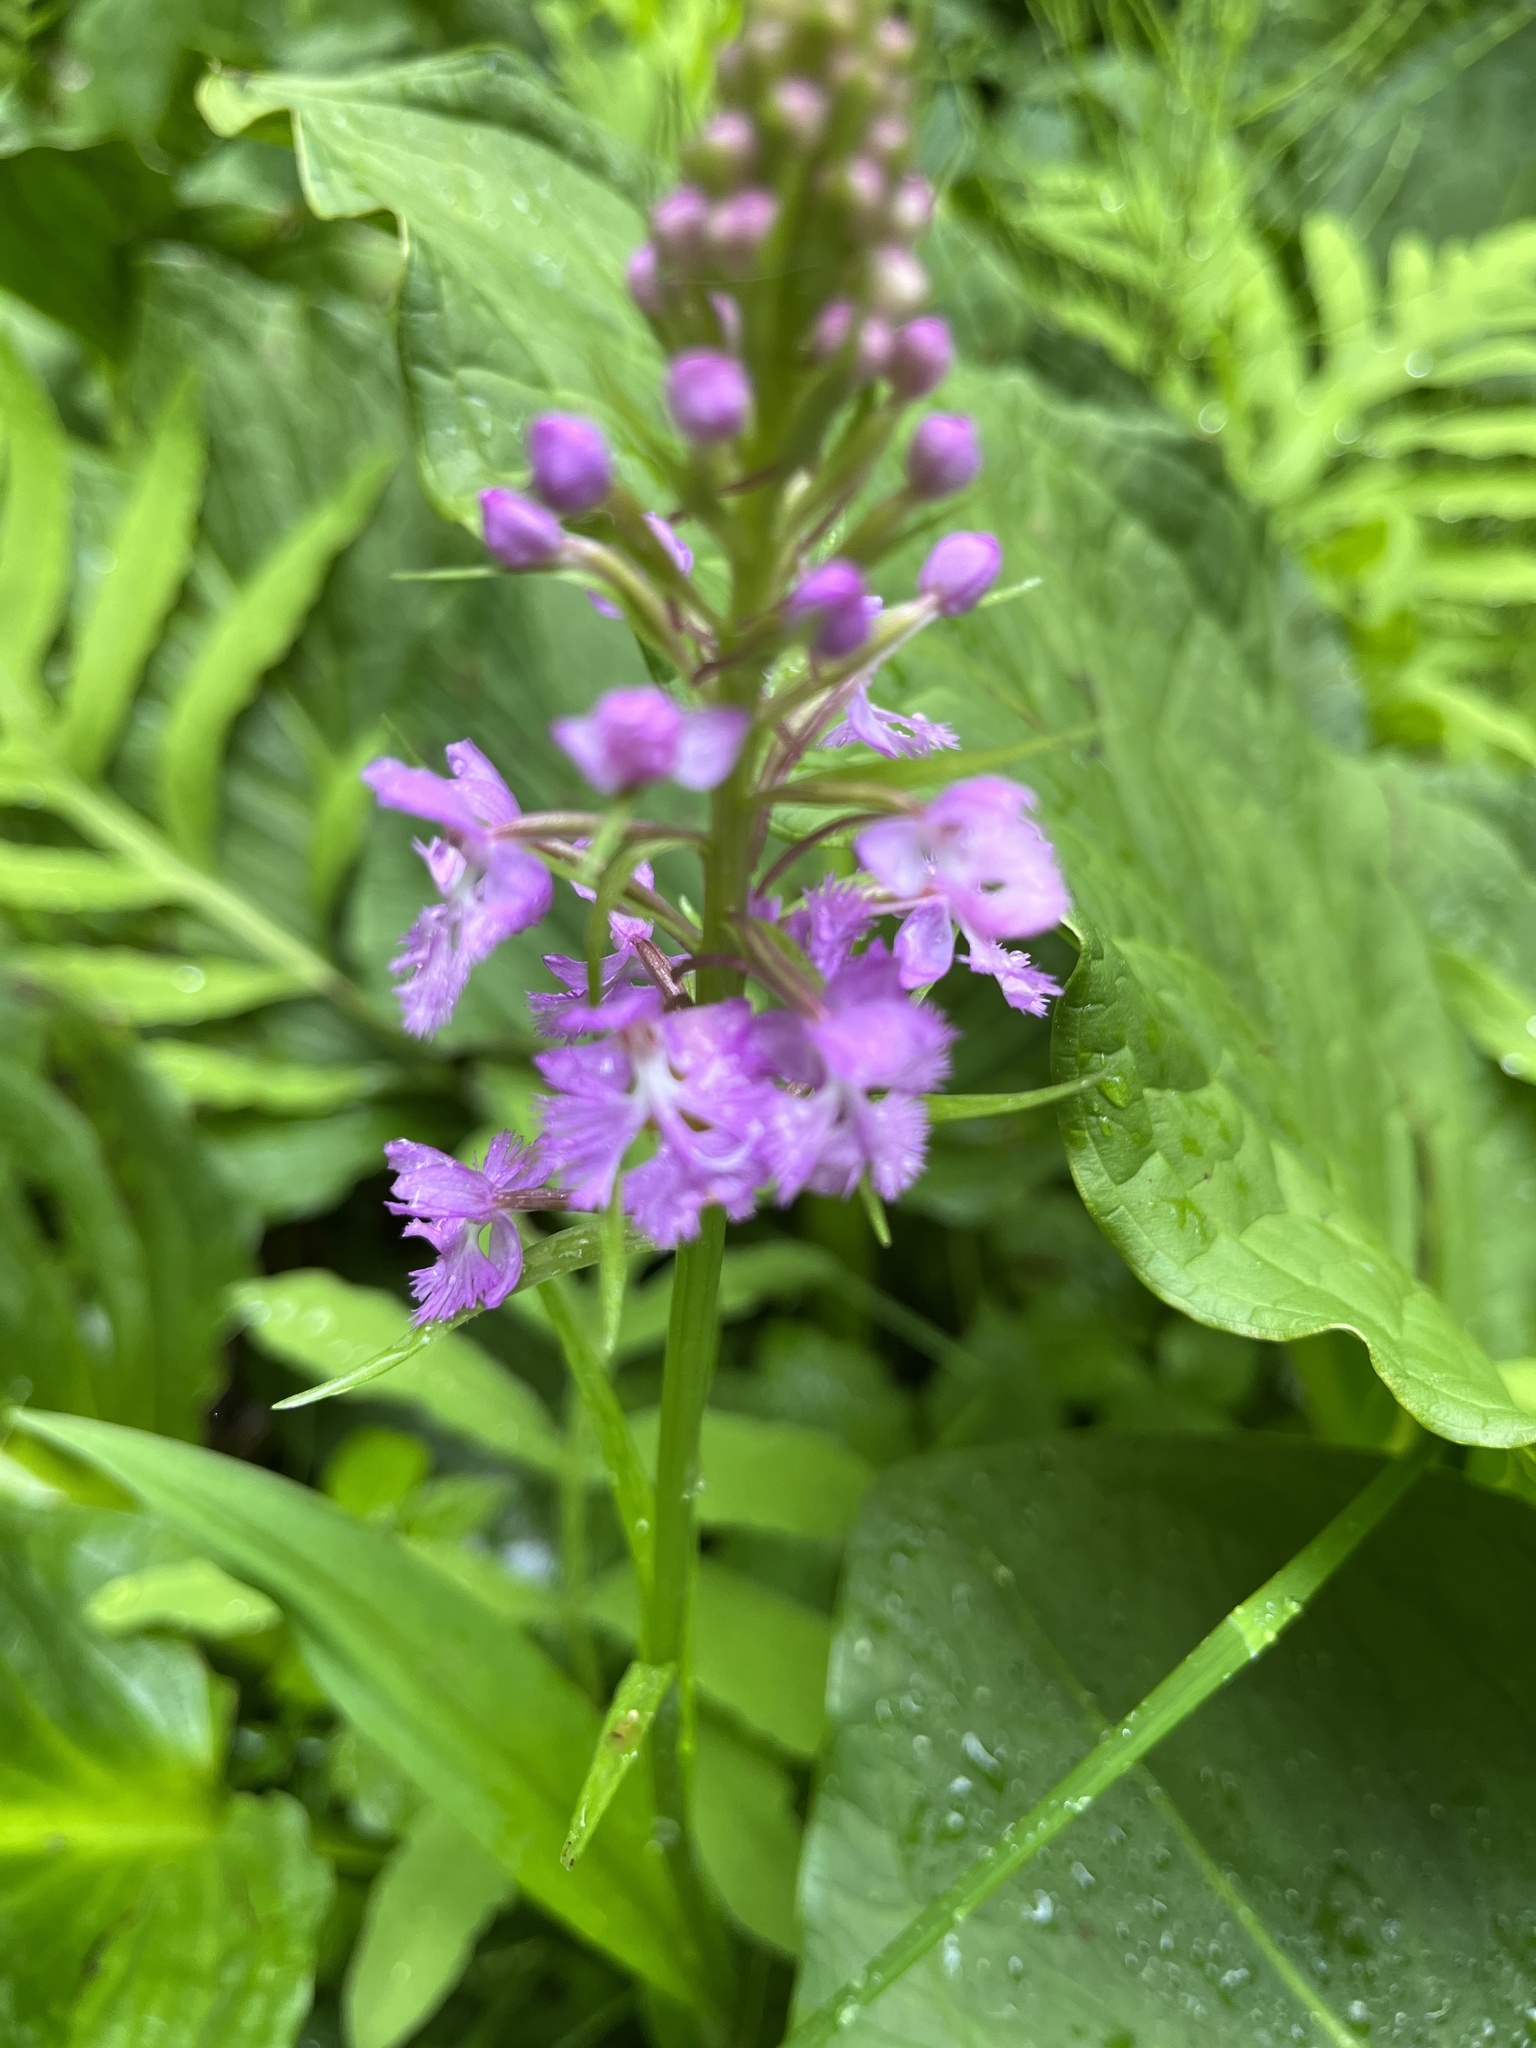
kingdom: Plantae
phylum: Tracheophyta
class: Liliopsida
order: Asparagales
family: Orchidaceae
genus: Platanthera
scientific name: Platanthera psycodes
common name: Lesser purple fringed orchid
